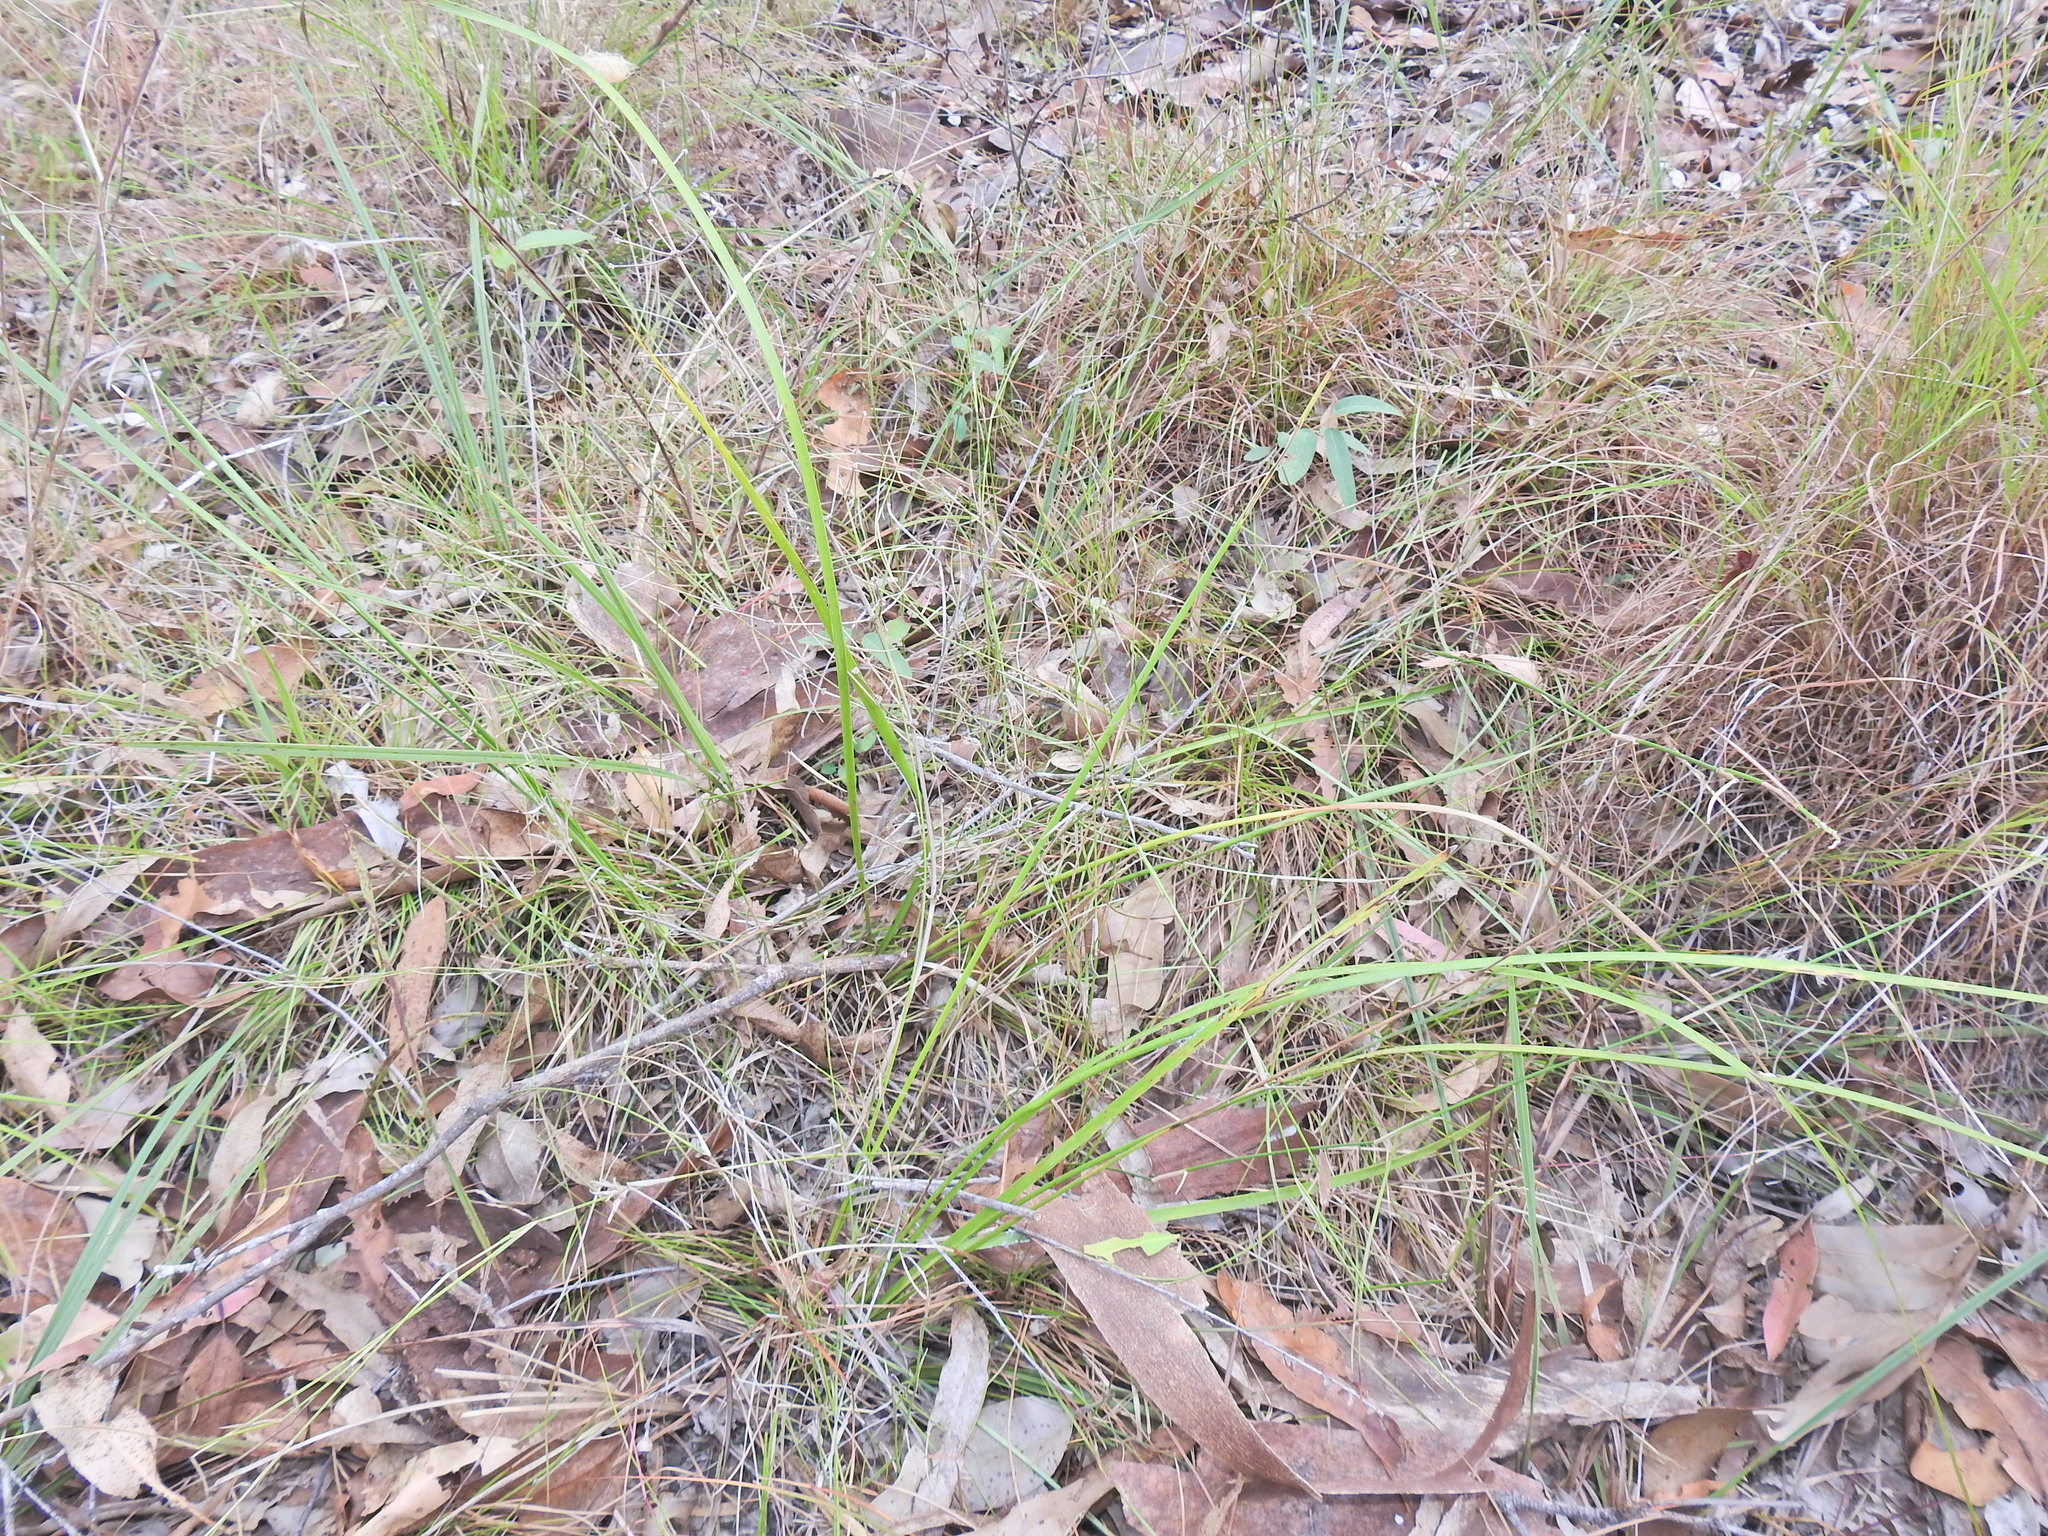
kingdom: Plantae
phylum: Tracheophyta
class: Liliopsida
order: Asparagales
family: Asparagaceae
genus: Lomandra
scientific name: Lomandra multiflora
